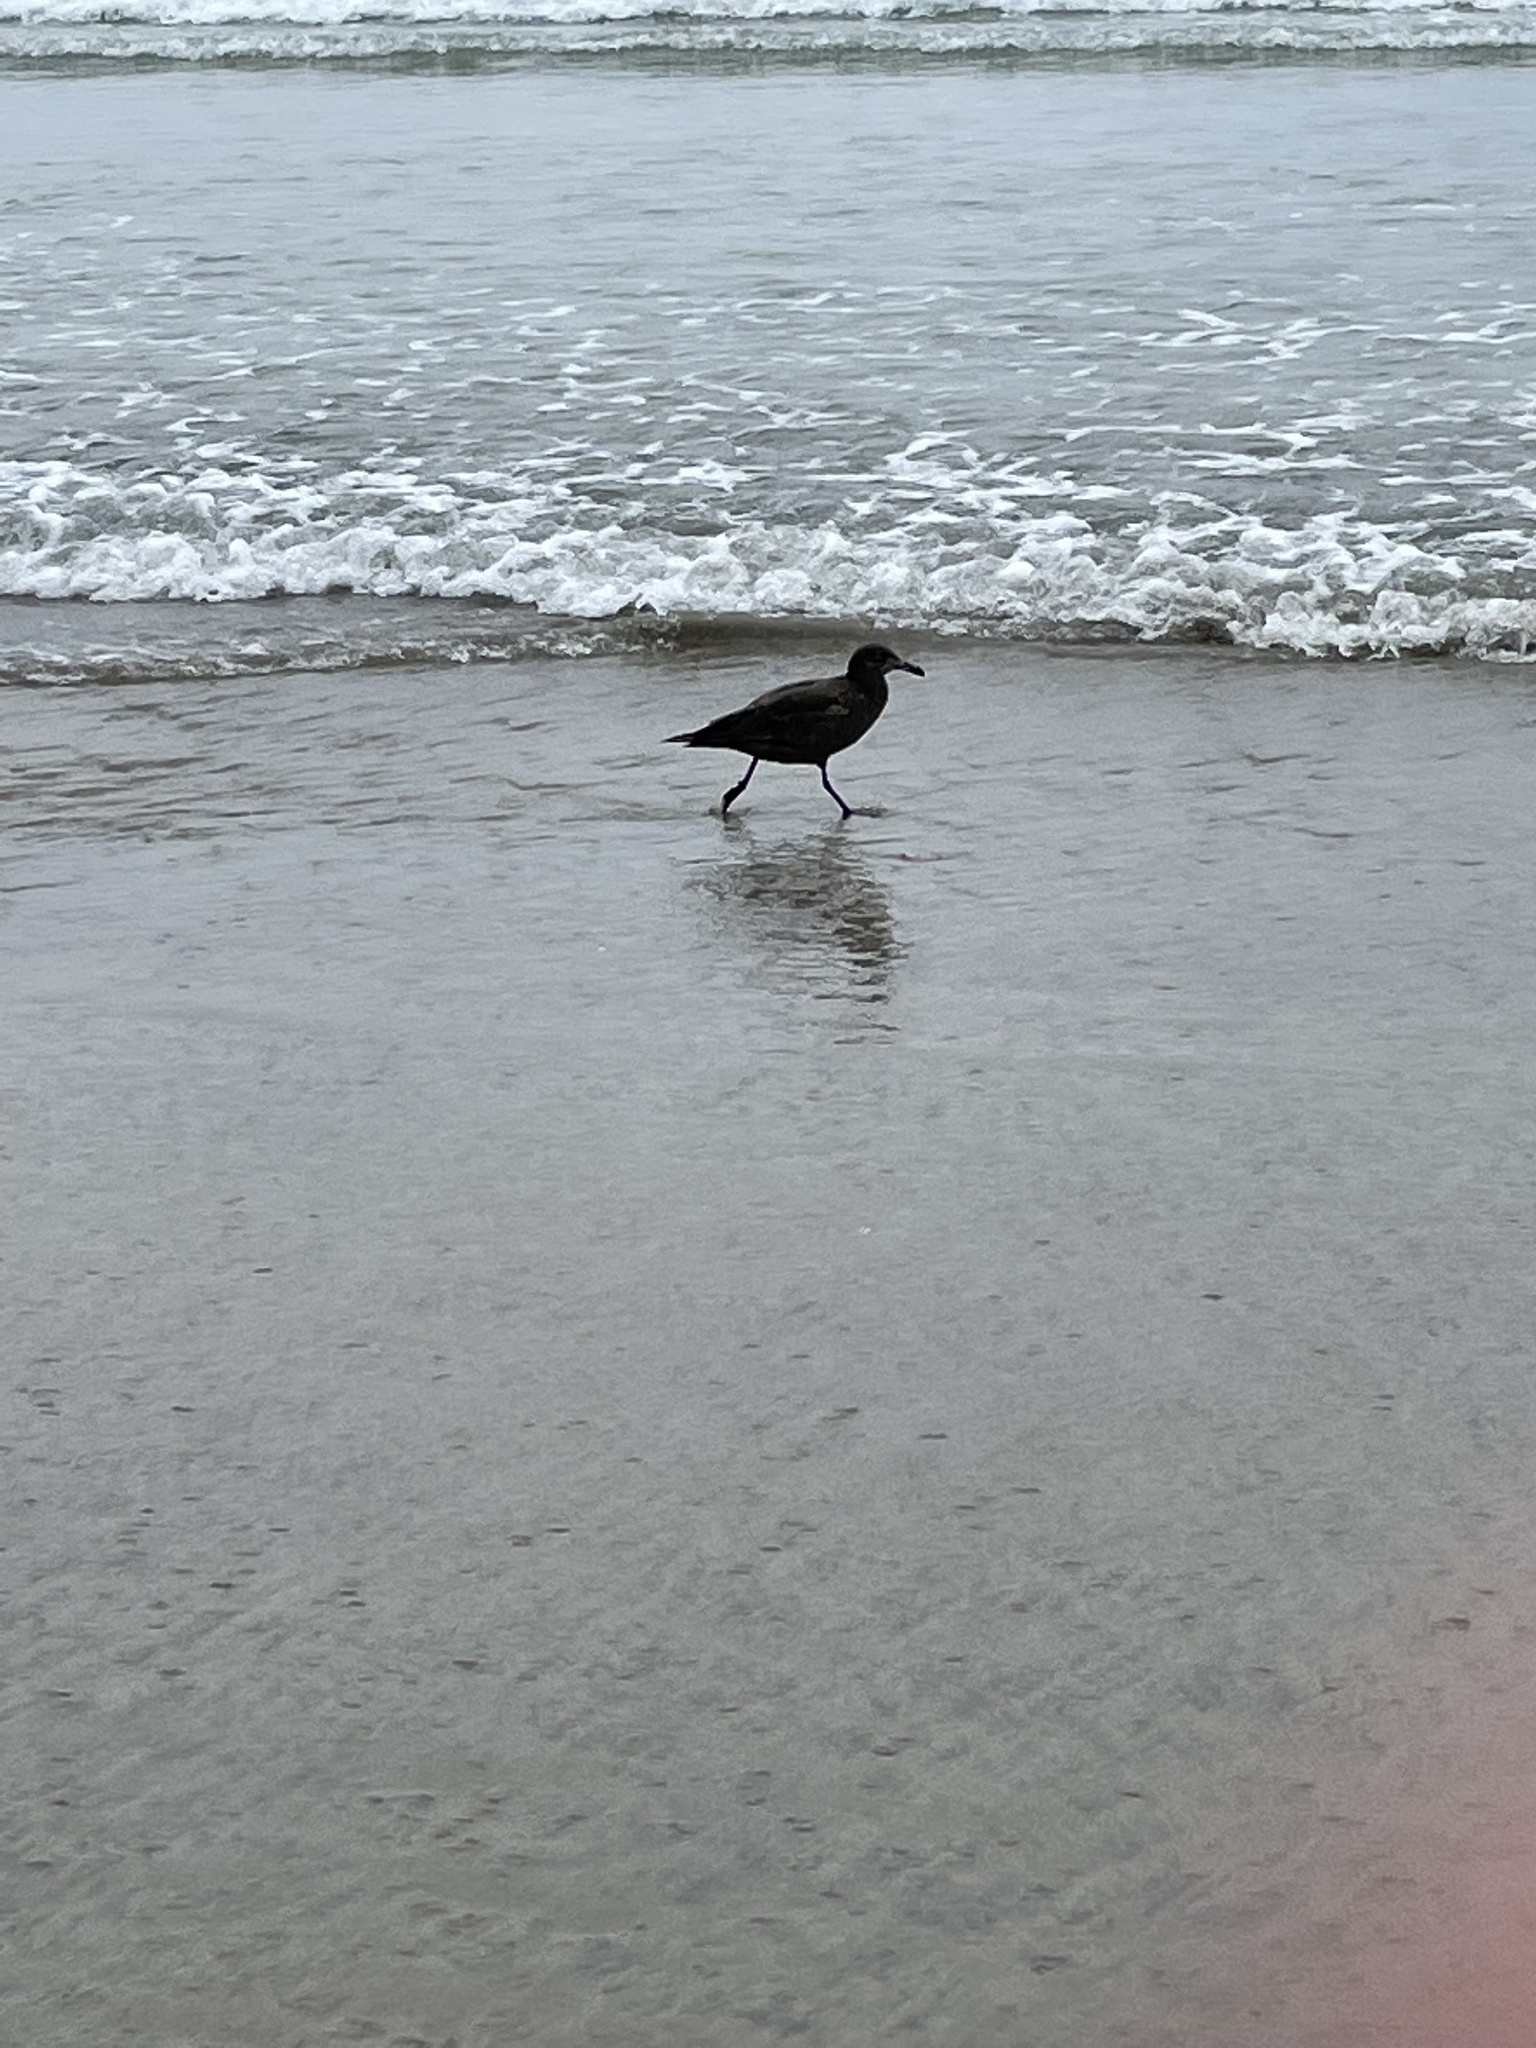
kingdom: Animalia
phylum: Chordata
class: Aves
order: Charadriiformes
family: Laridae
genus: Larus
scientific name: Larus heermanni
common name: Heermann's gull
